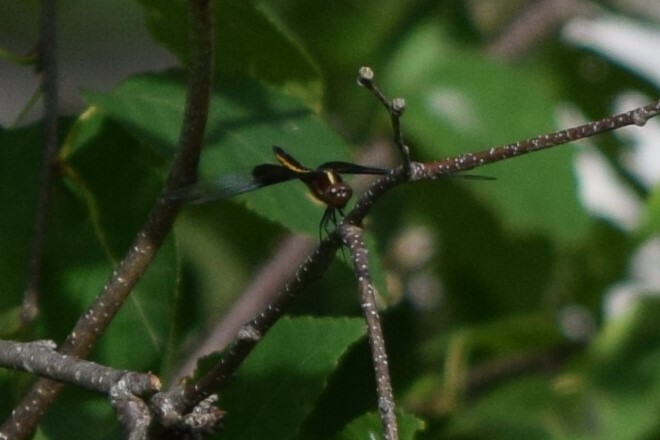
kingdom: Animalia
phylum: Arthropoda
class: Insecta
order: Odonata
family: Libellulidae
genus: Libellula
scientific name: Libellula luctuosa
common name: Widow skimmer
